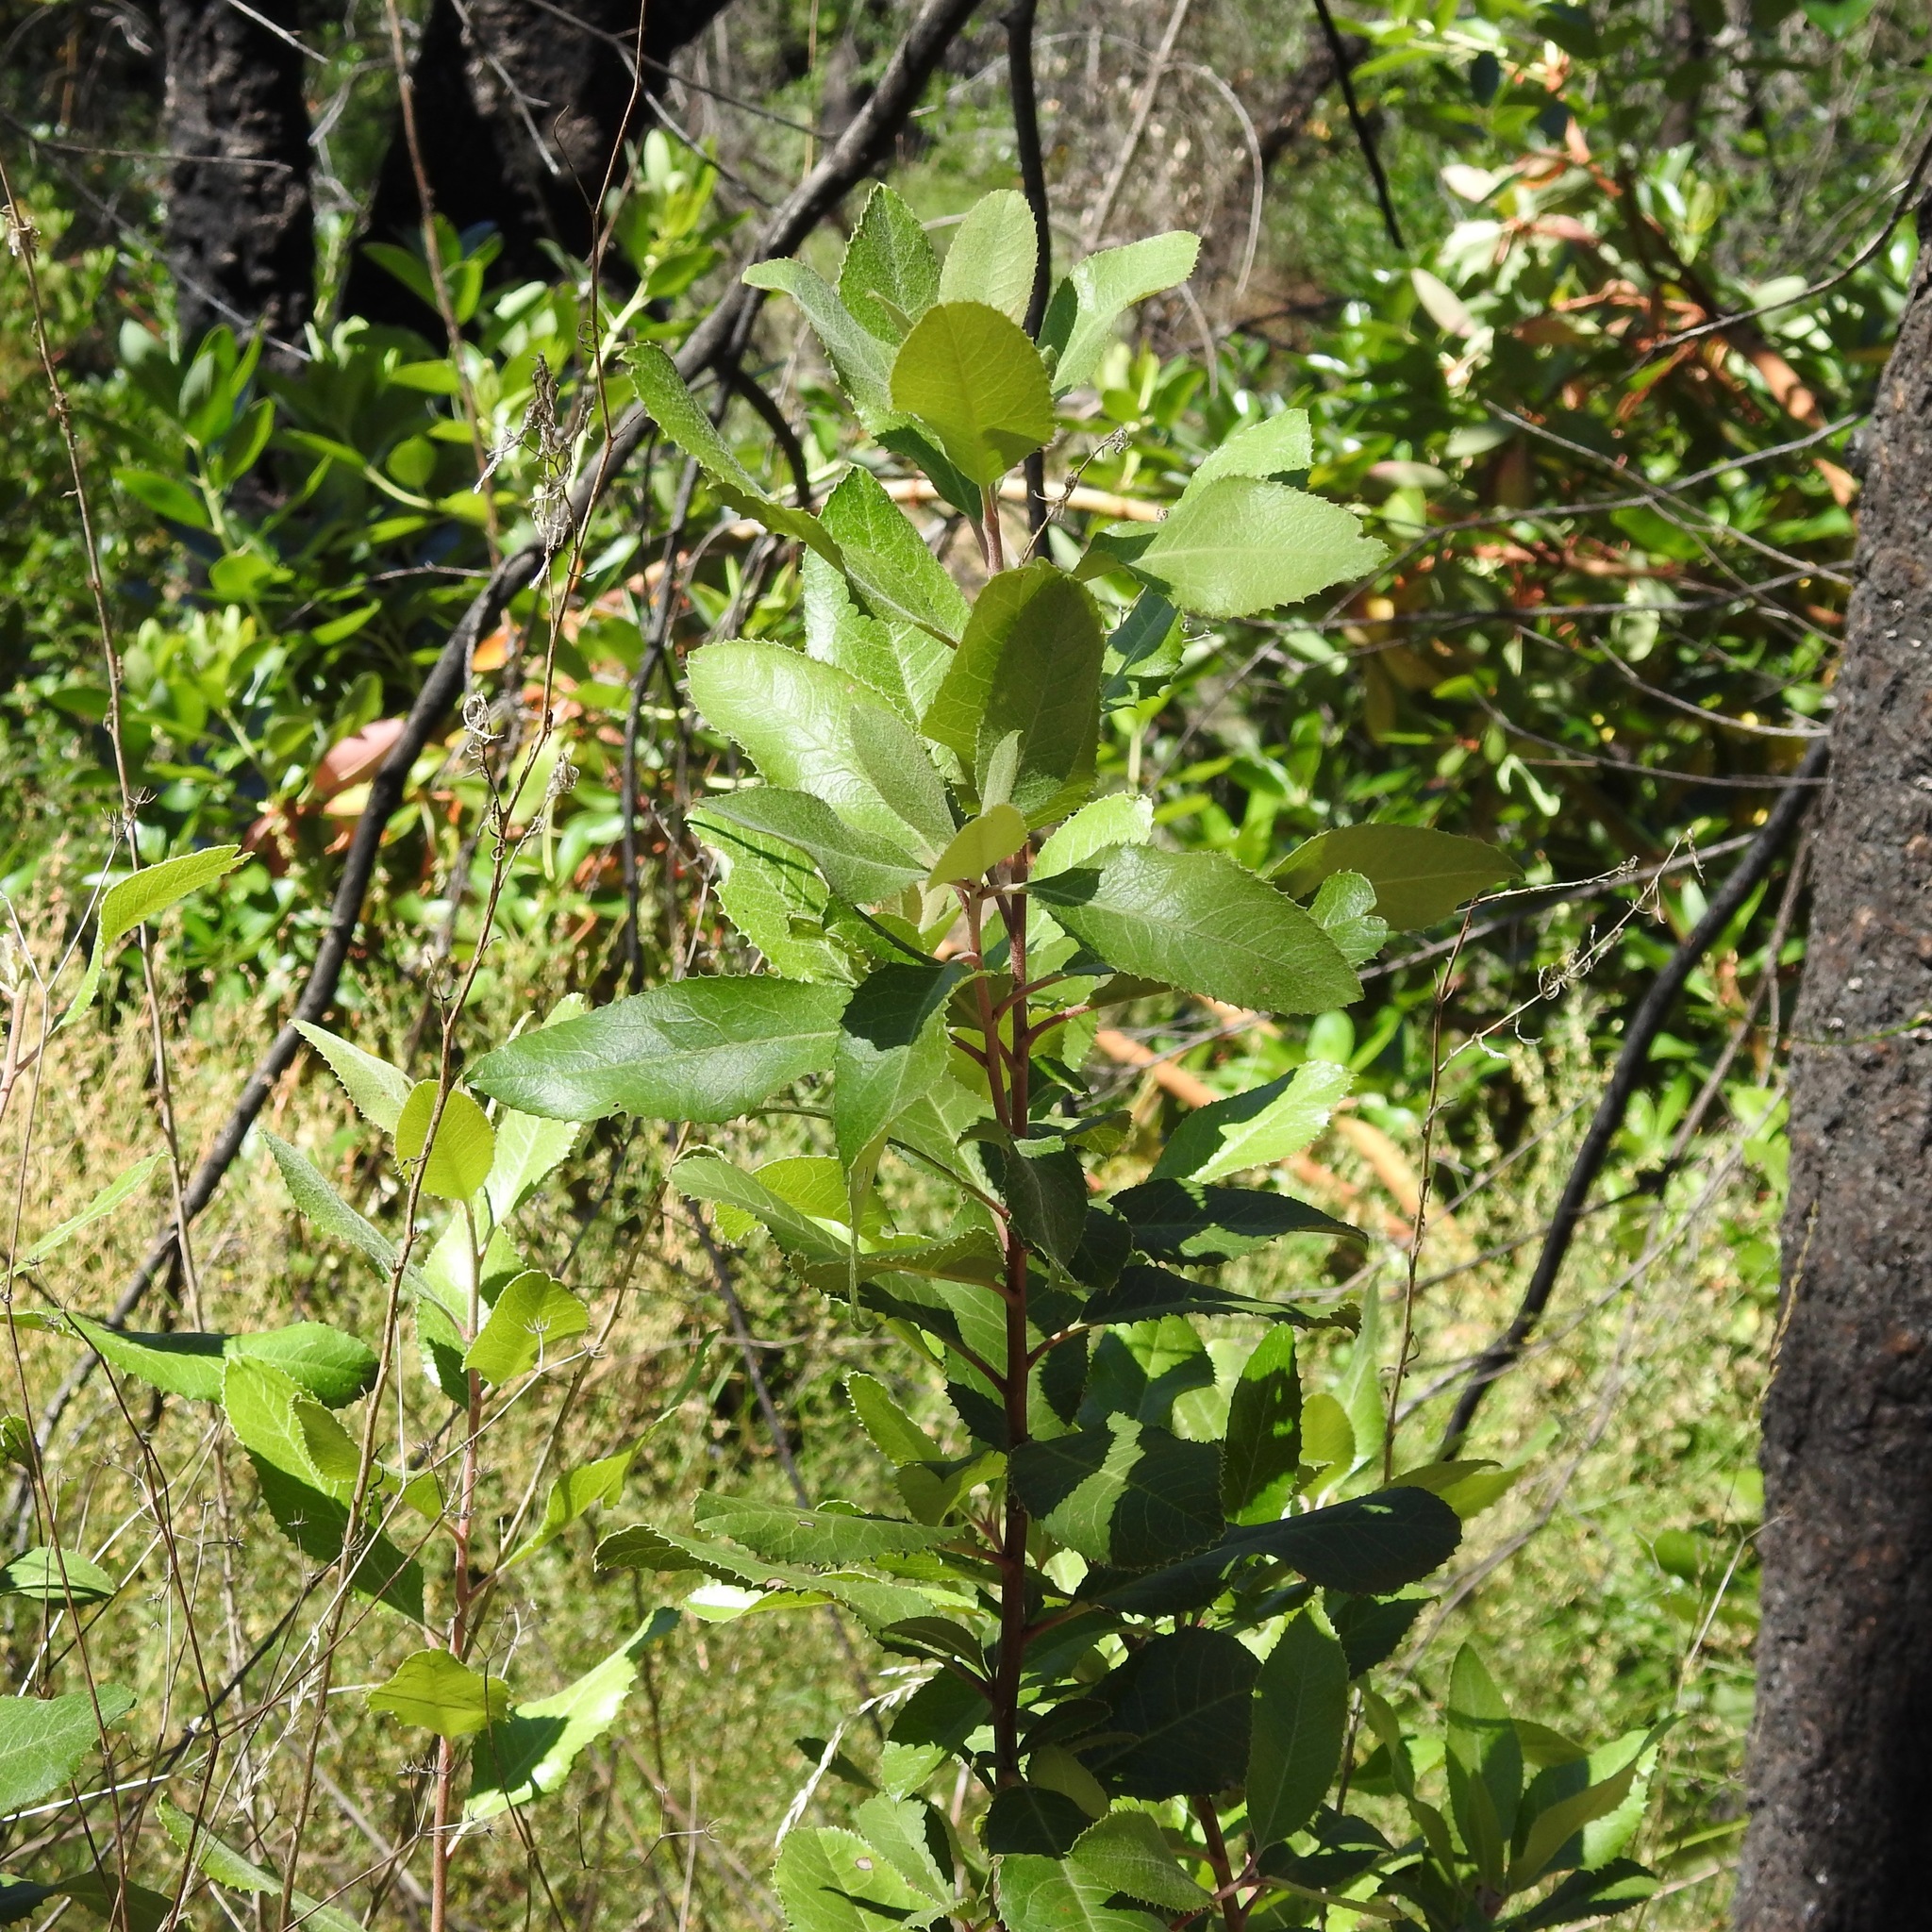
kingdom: Plantae
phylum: Tracheophyta
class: Magnoliopsida
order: Rosales
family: Rosaceae
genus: Heteromeles
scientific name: Heteromeles arbutifolia
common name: California-holly
